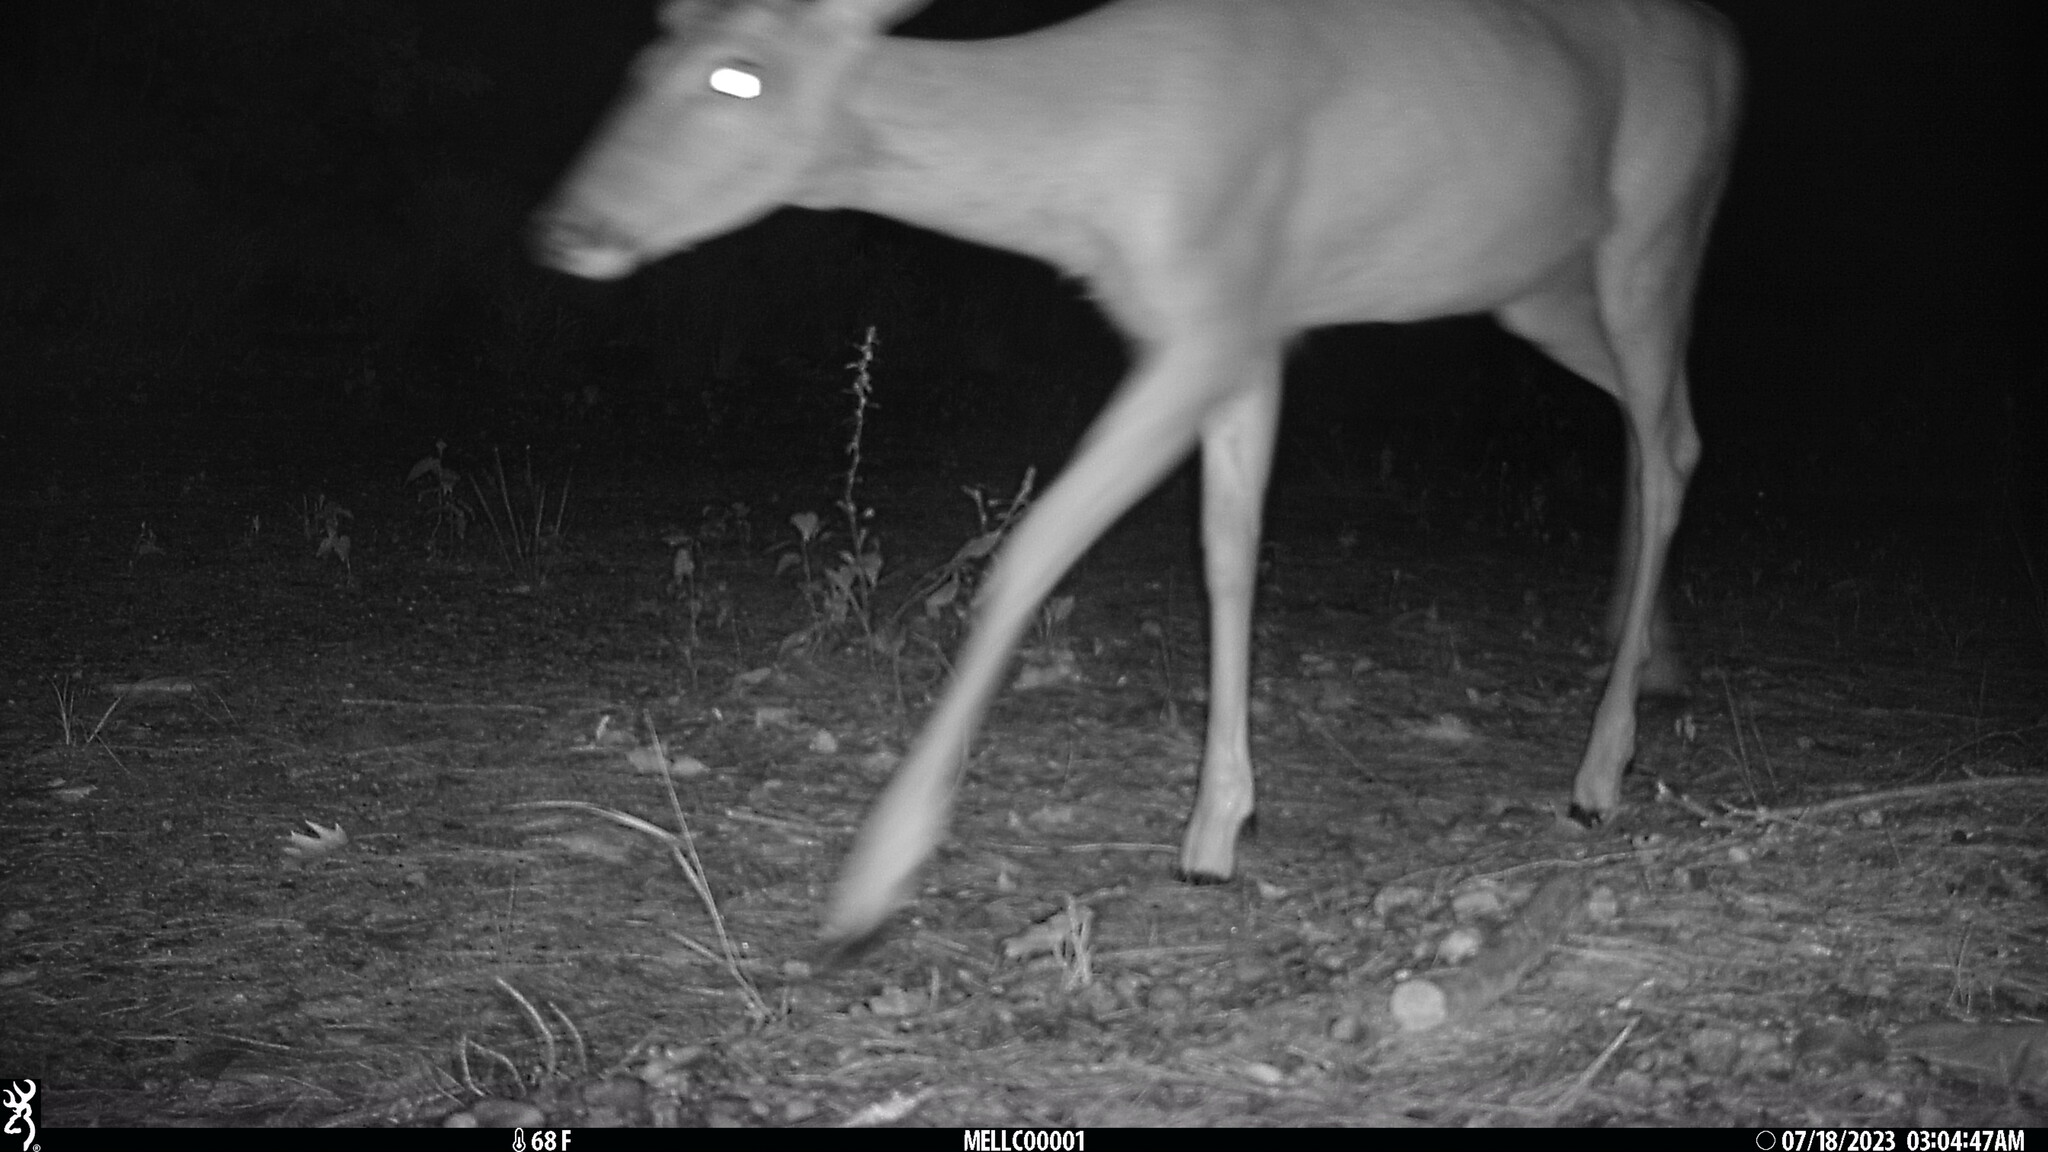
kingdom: Animalia
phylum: Chordata
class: Mammalia
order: Artiodactyla
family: Cervidae
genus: Odocoileus
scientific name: Odocoileus virginianus
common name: White-tailed deer
